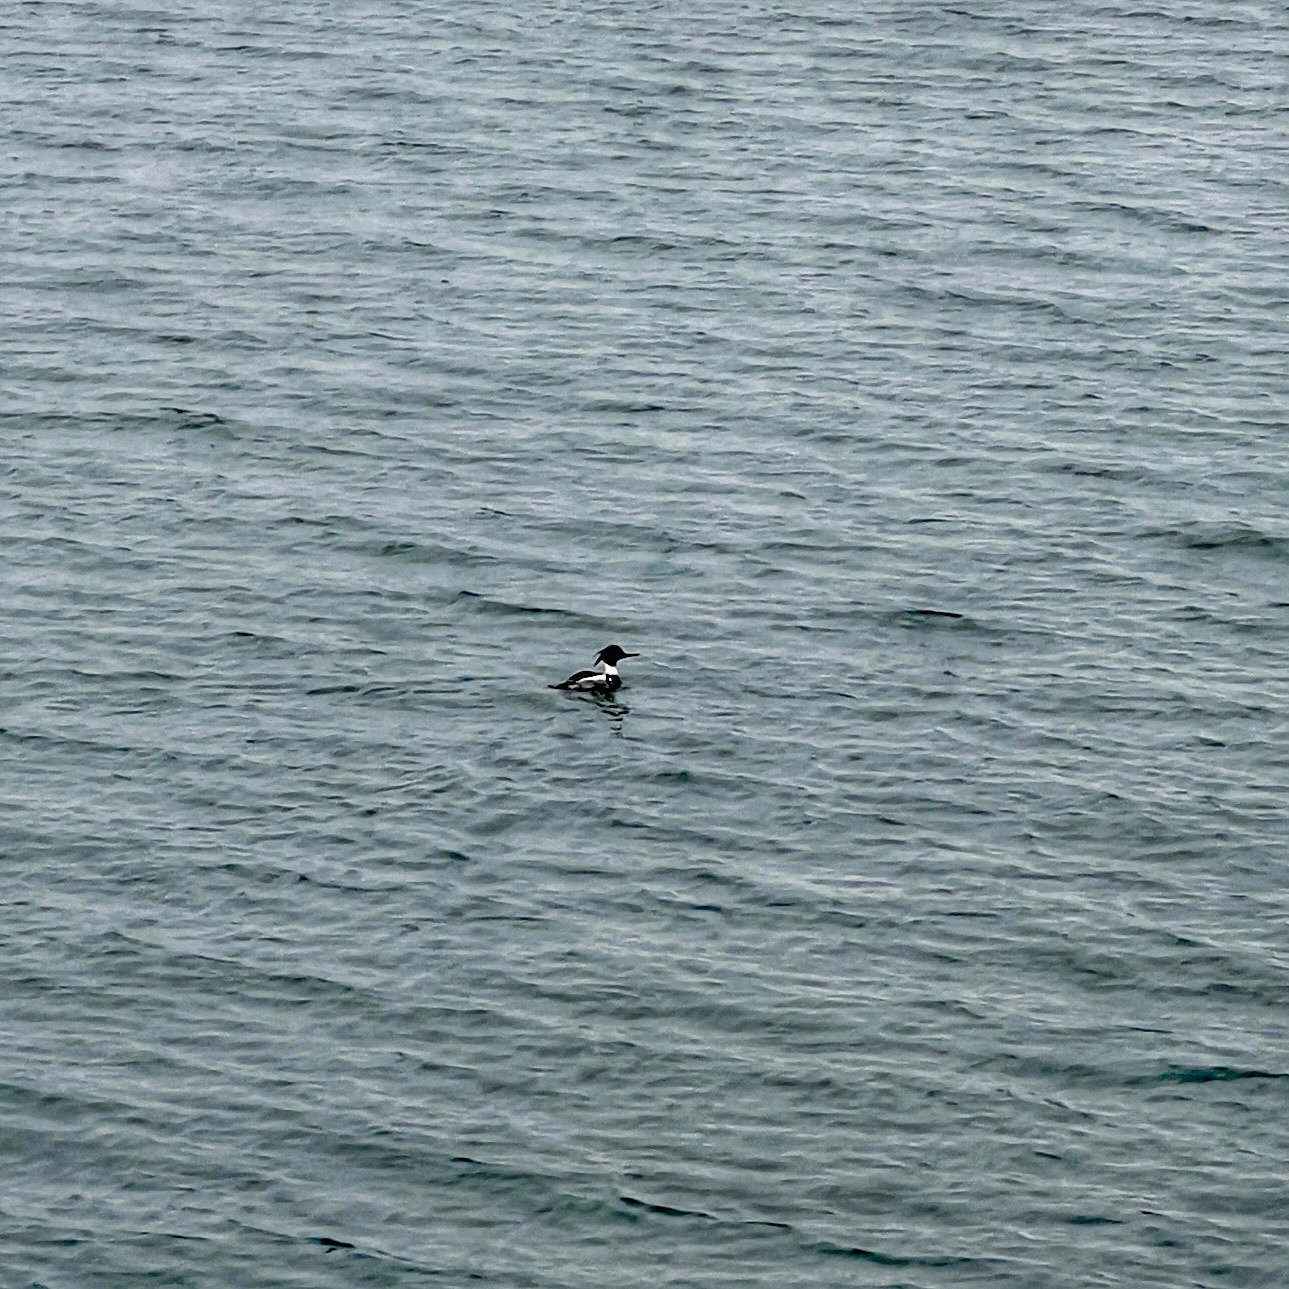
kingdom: Animalia
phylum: Chordata
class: Aves
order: Anseriformes
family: Anatidae
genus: Mergus
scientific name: Mergus serrator
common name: Red-breasted merganser
